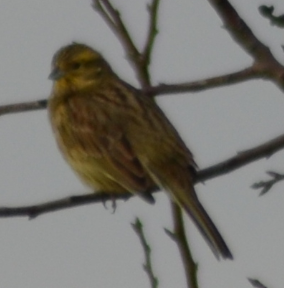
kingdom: Animalia
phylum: Chordata
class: Aves
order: Passeriformes
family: Emberizidae
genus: Emberiza
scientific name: Emberiza cirlus
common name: Cirl bunting
